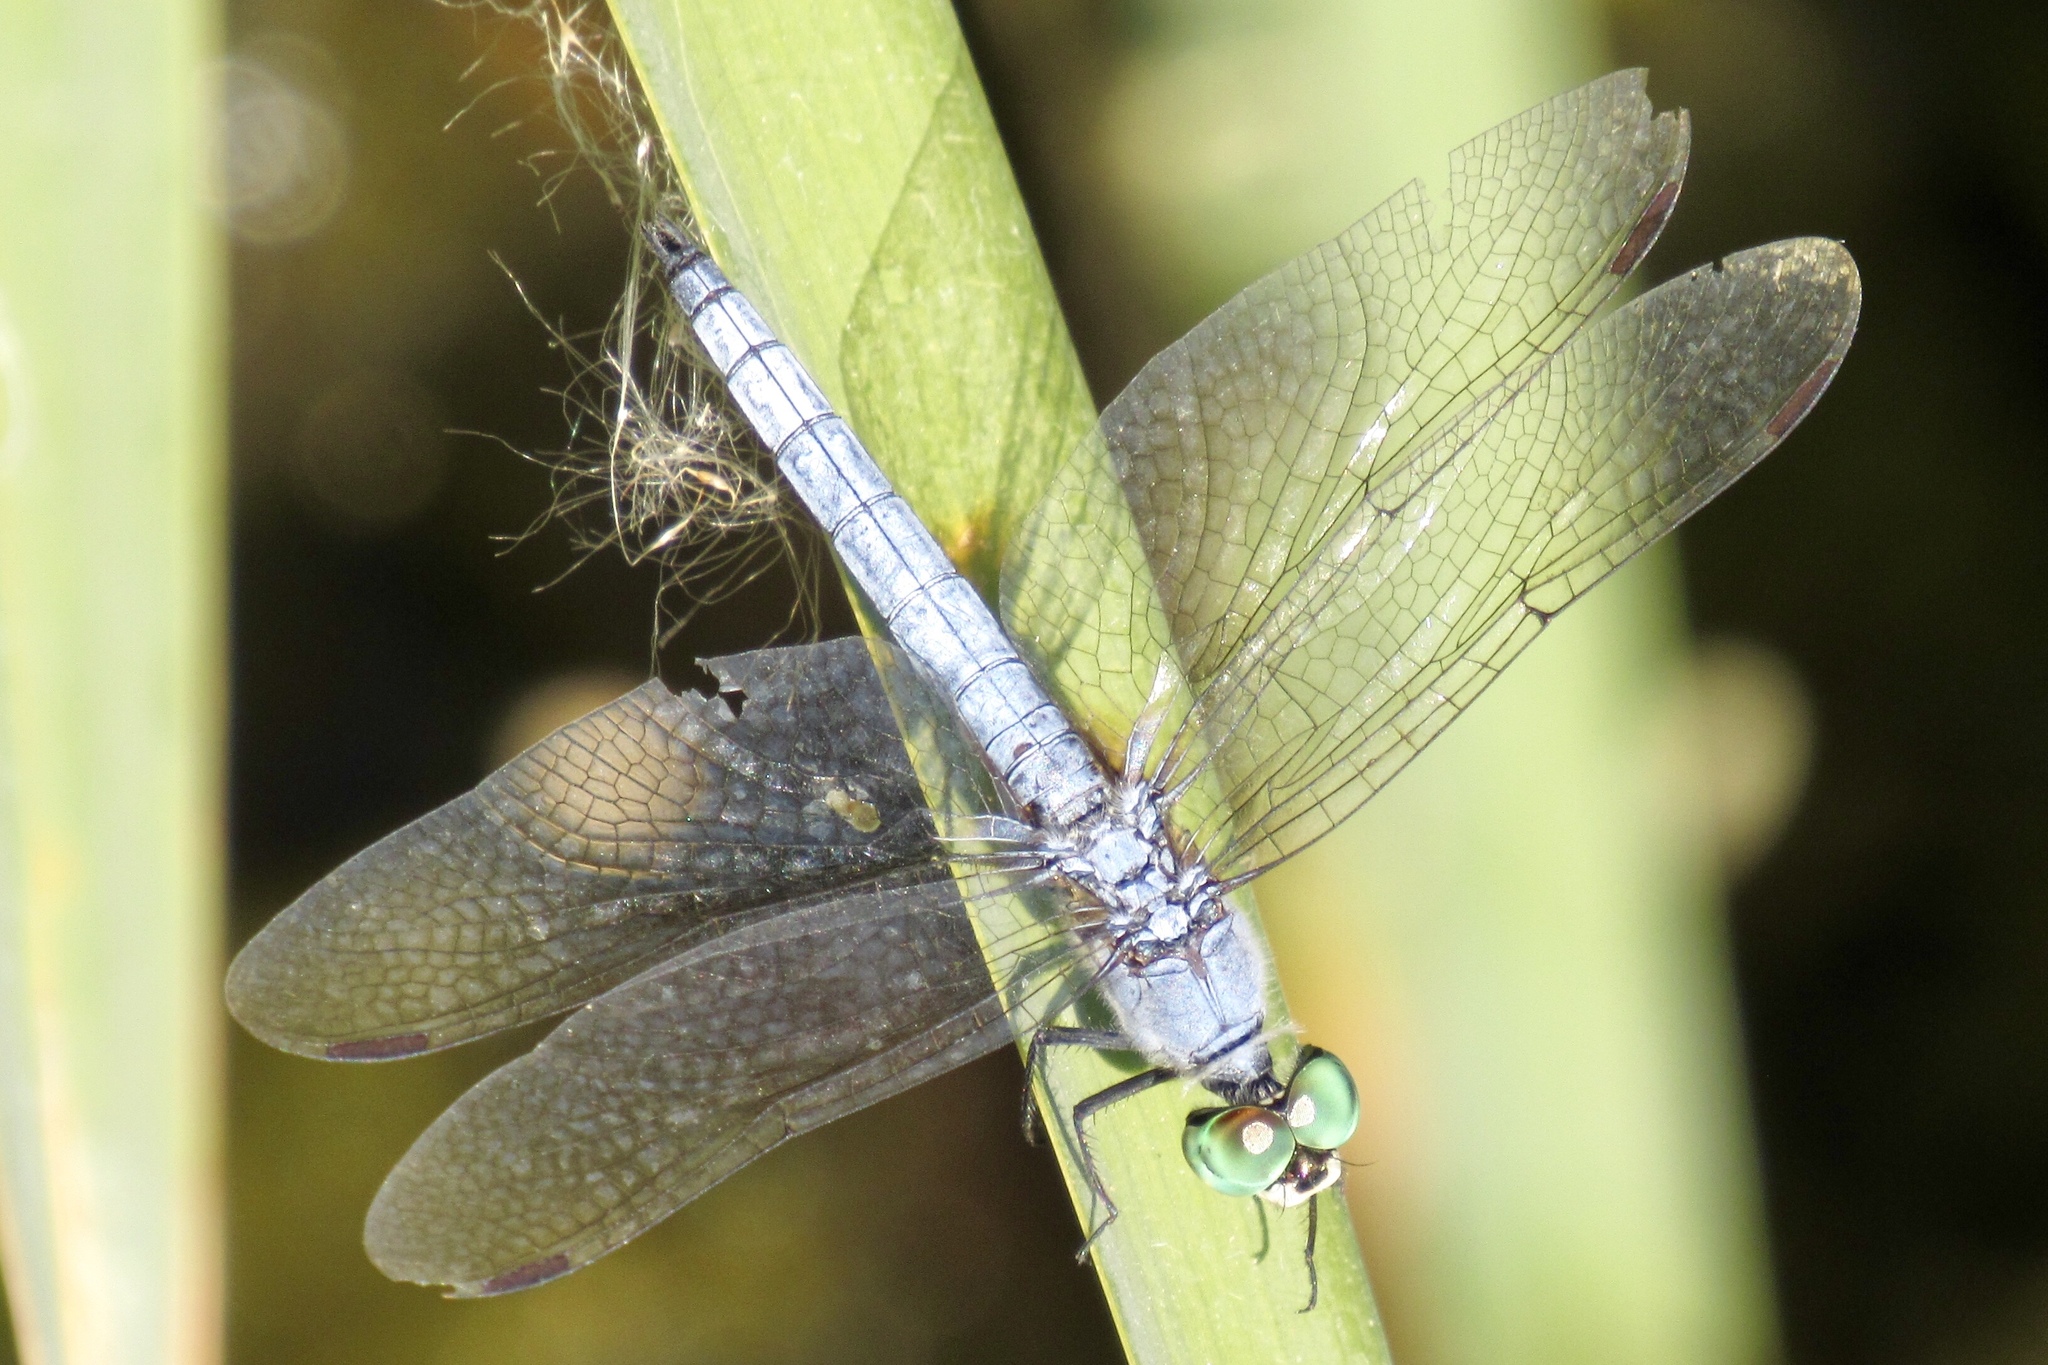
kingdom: Animalia
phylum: Arthropoda
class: Insecta
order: Odonata
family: Libellulidae
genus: Pachydiplax
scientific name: Pachydiplax longipennis
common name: Blue dasher
